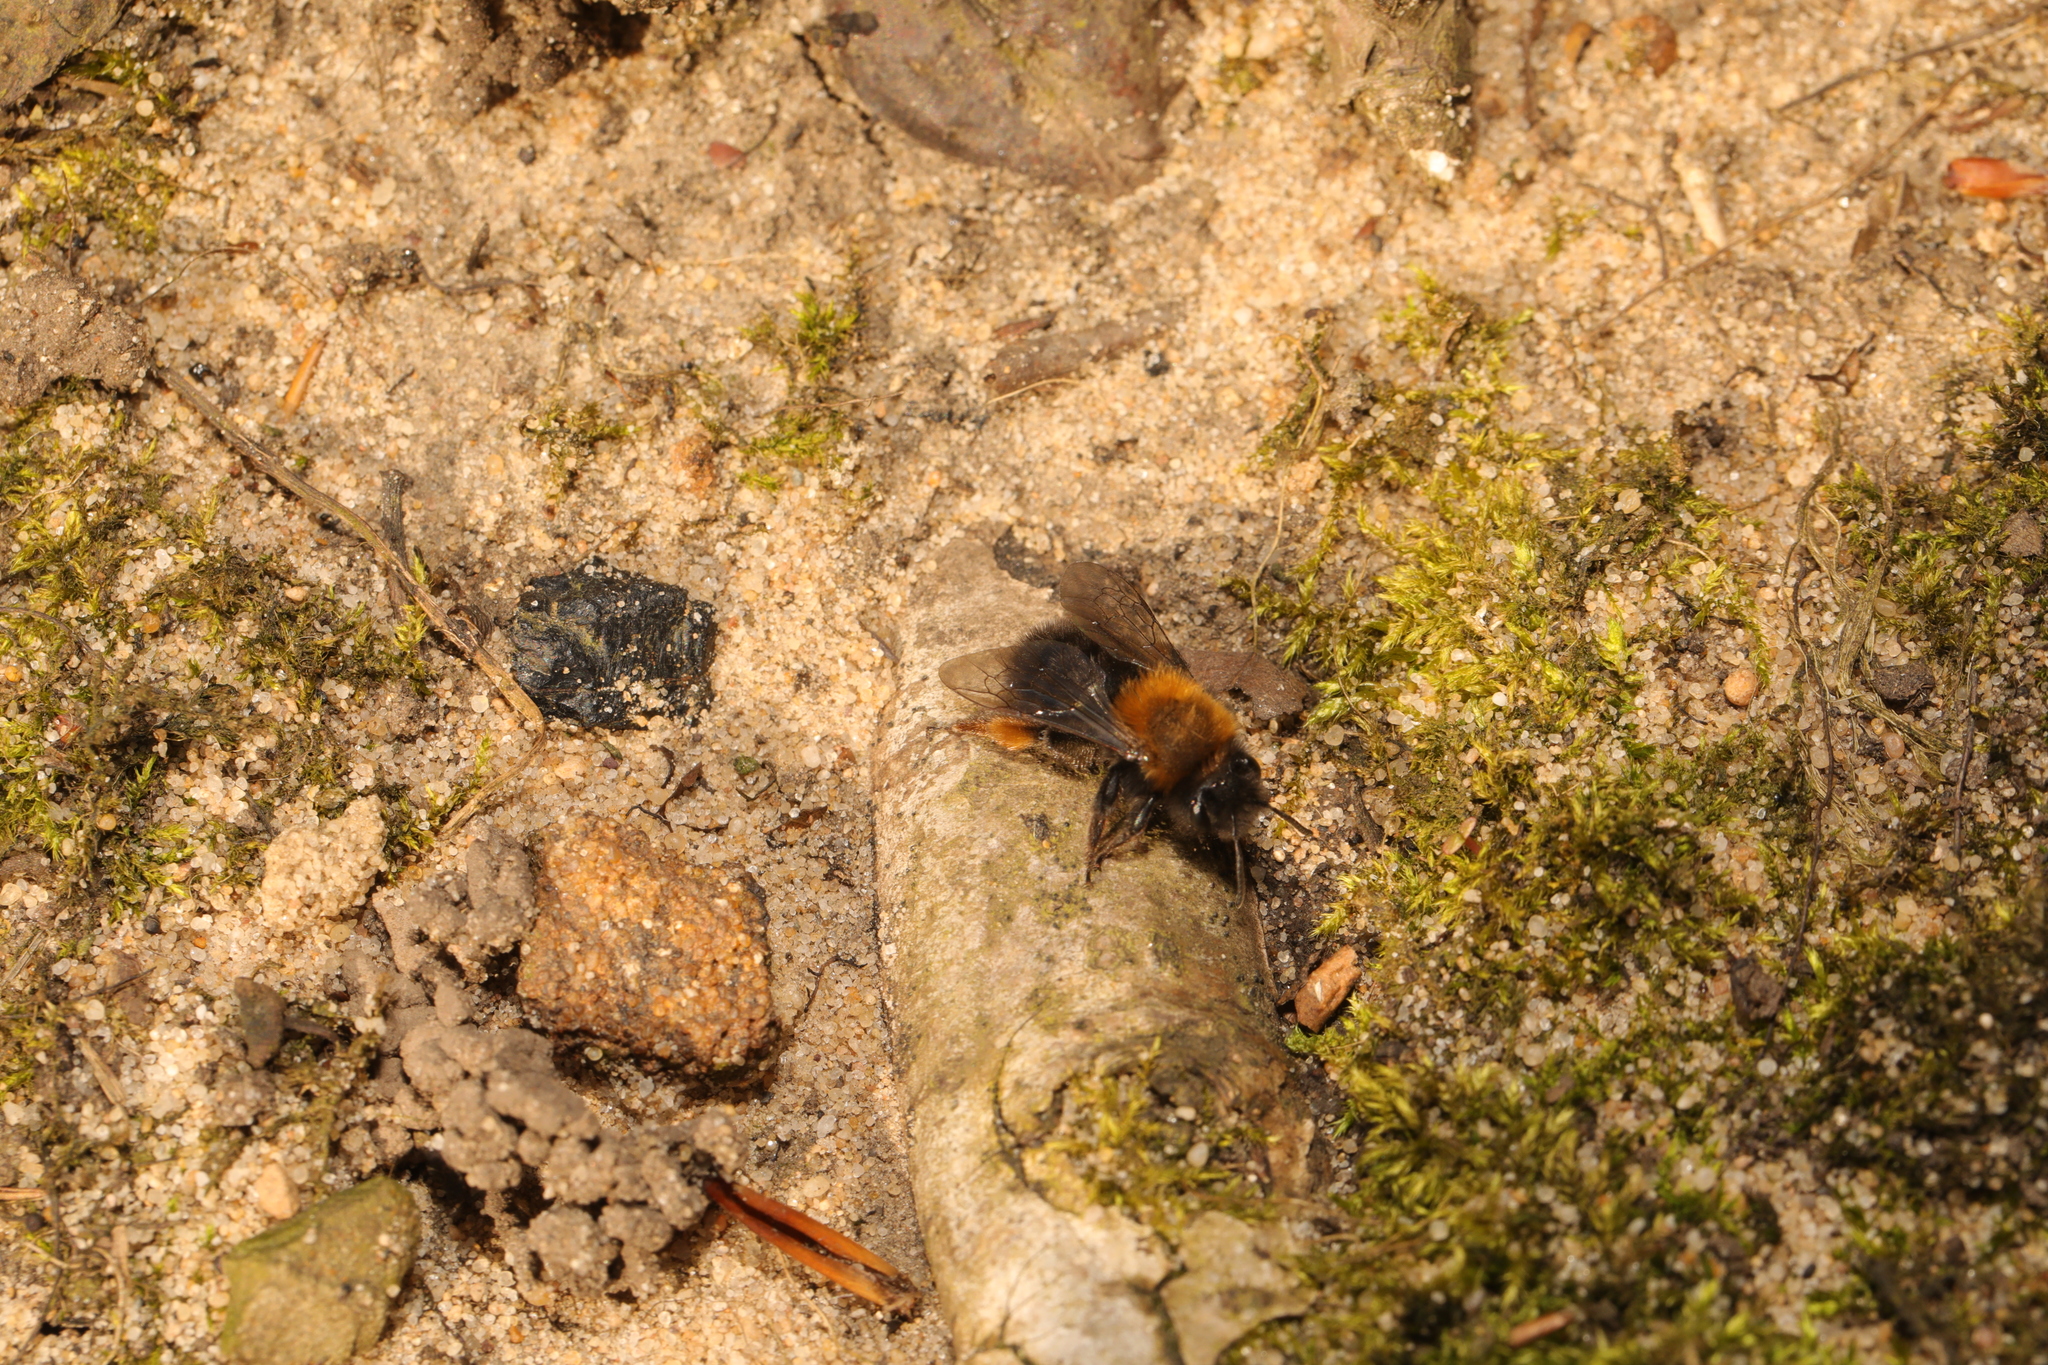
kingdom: Animalia
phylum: Arthropoda
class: Insecta
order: Hymenoptera
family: Andrenidae
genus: Andrena
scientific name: Andrena clarkella
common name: Clarke's mining bee
